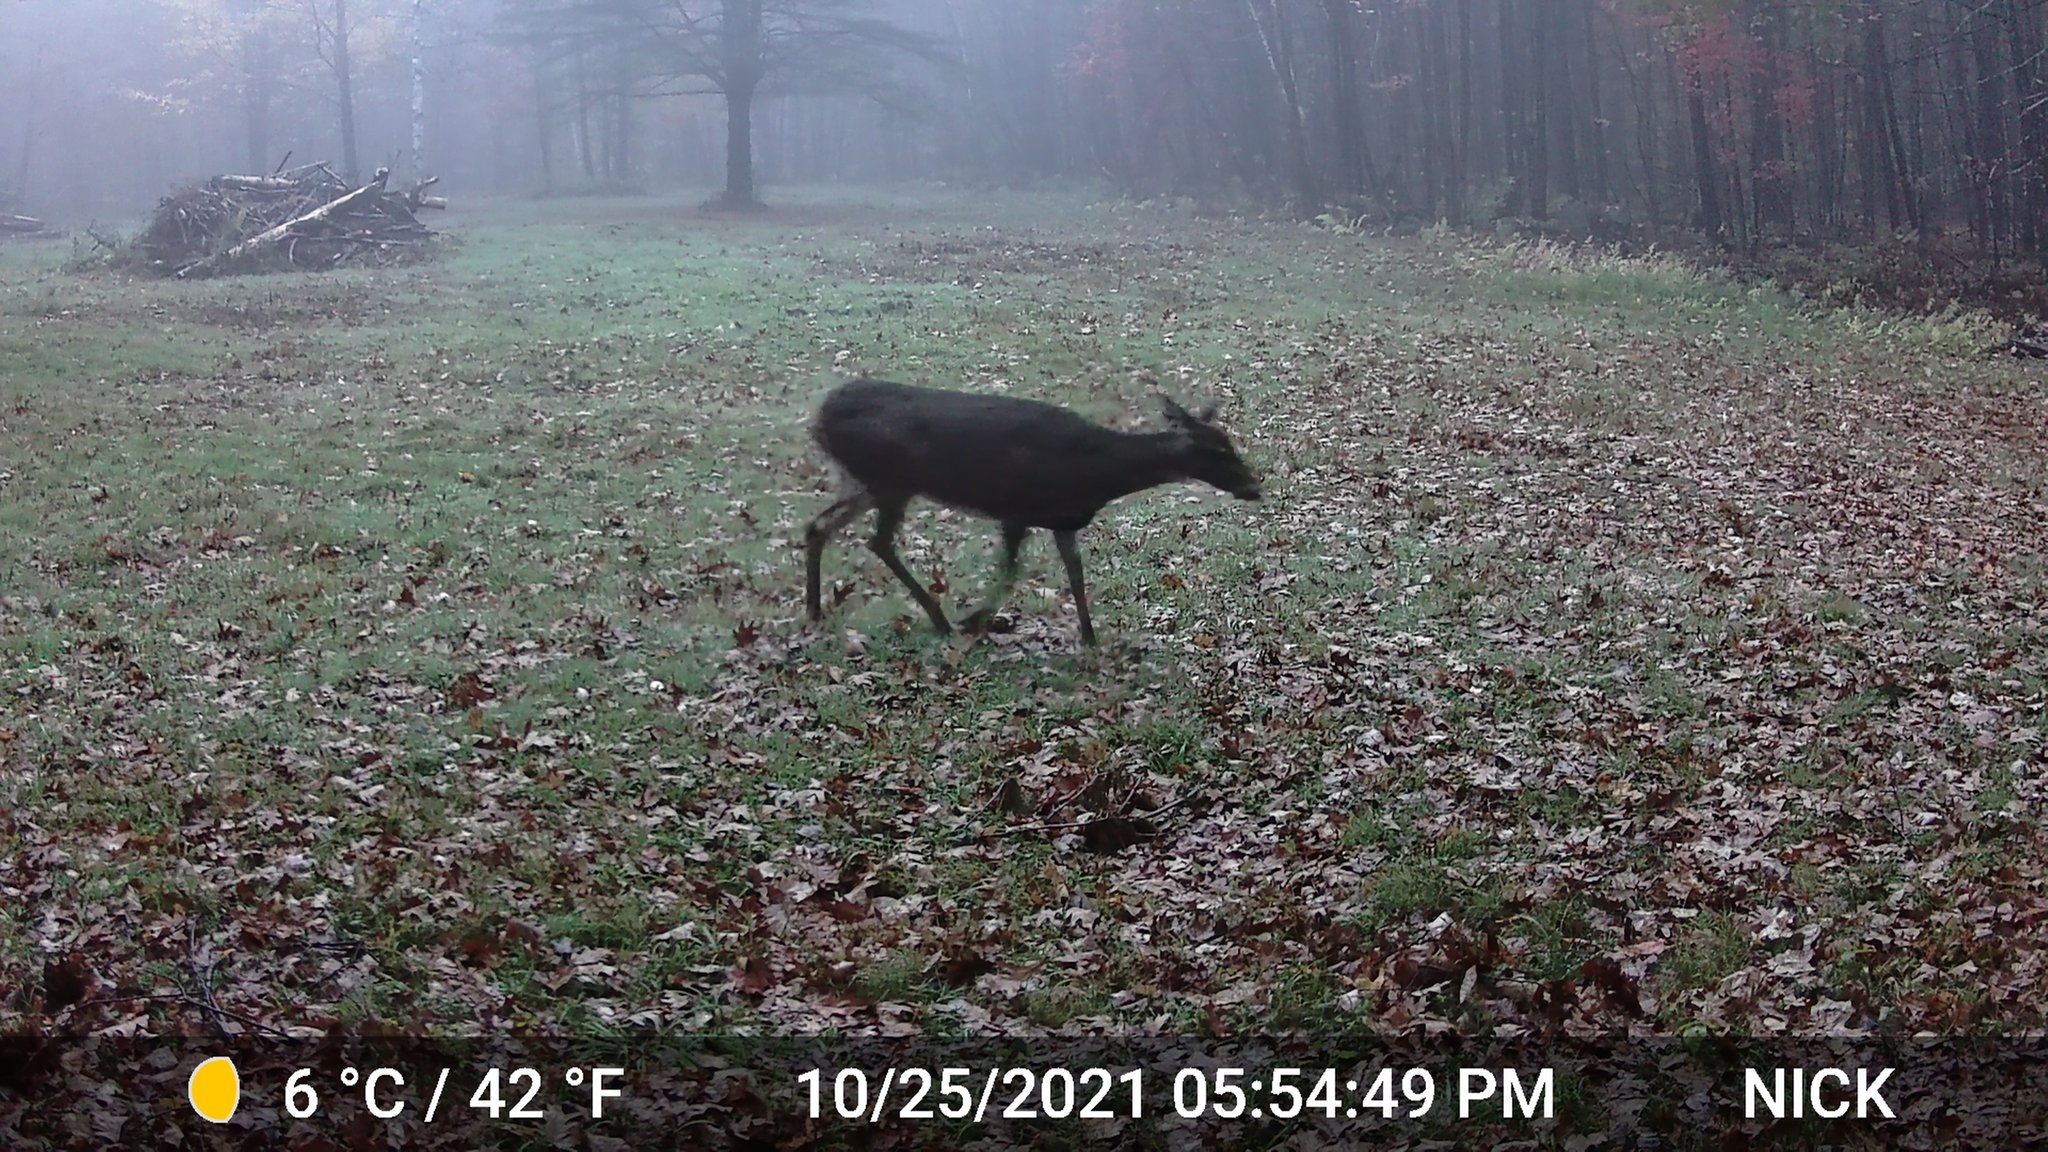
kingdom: Animalia
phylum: Chordata
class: Mammalia
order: Artiodactyla
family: Cervidae
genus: Odocoileus
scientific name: Odocoileus virginianus
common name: White-tailed deer
